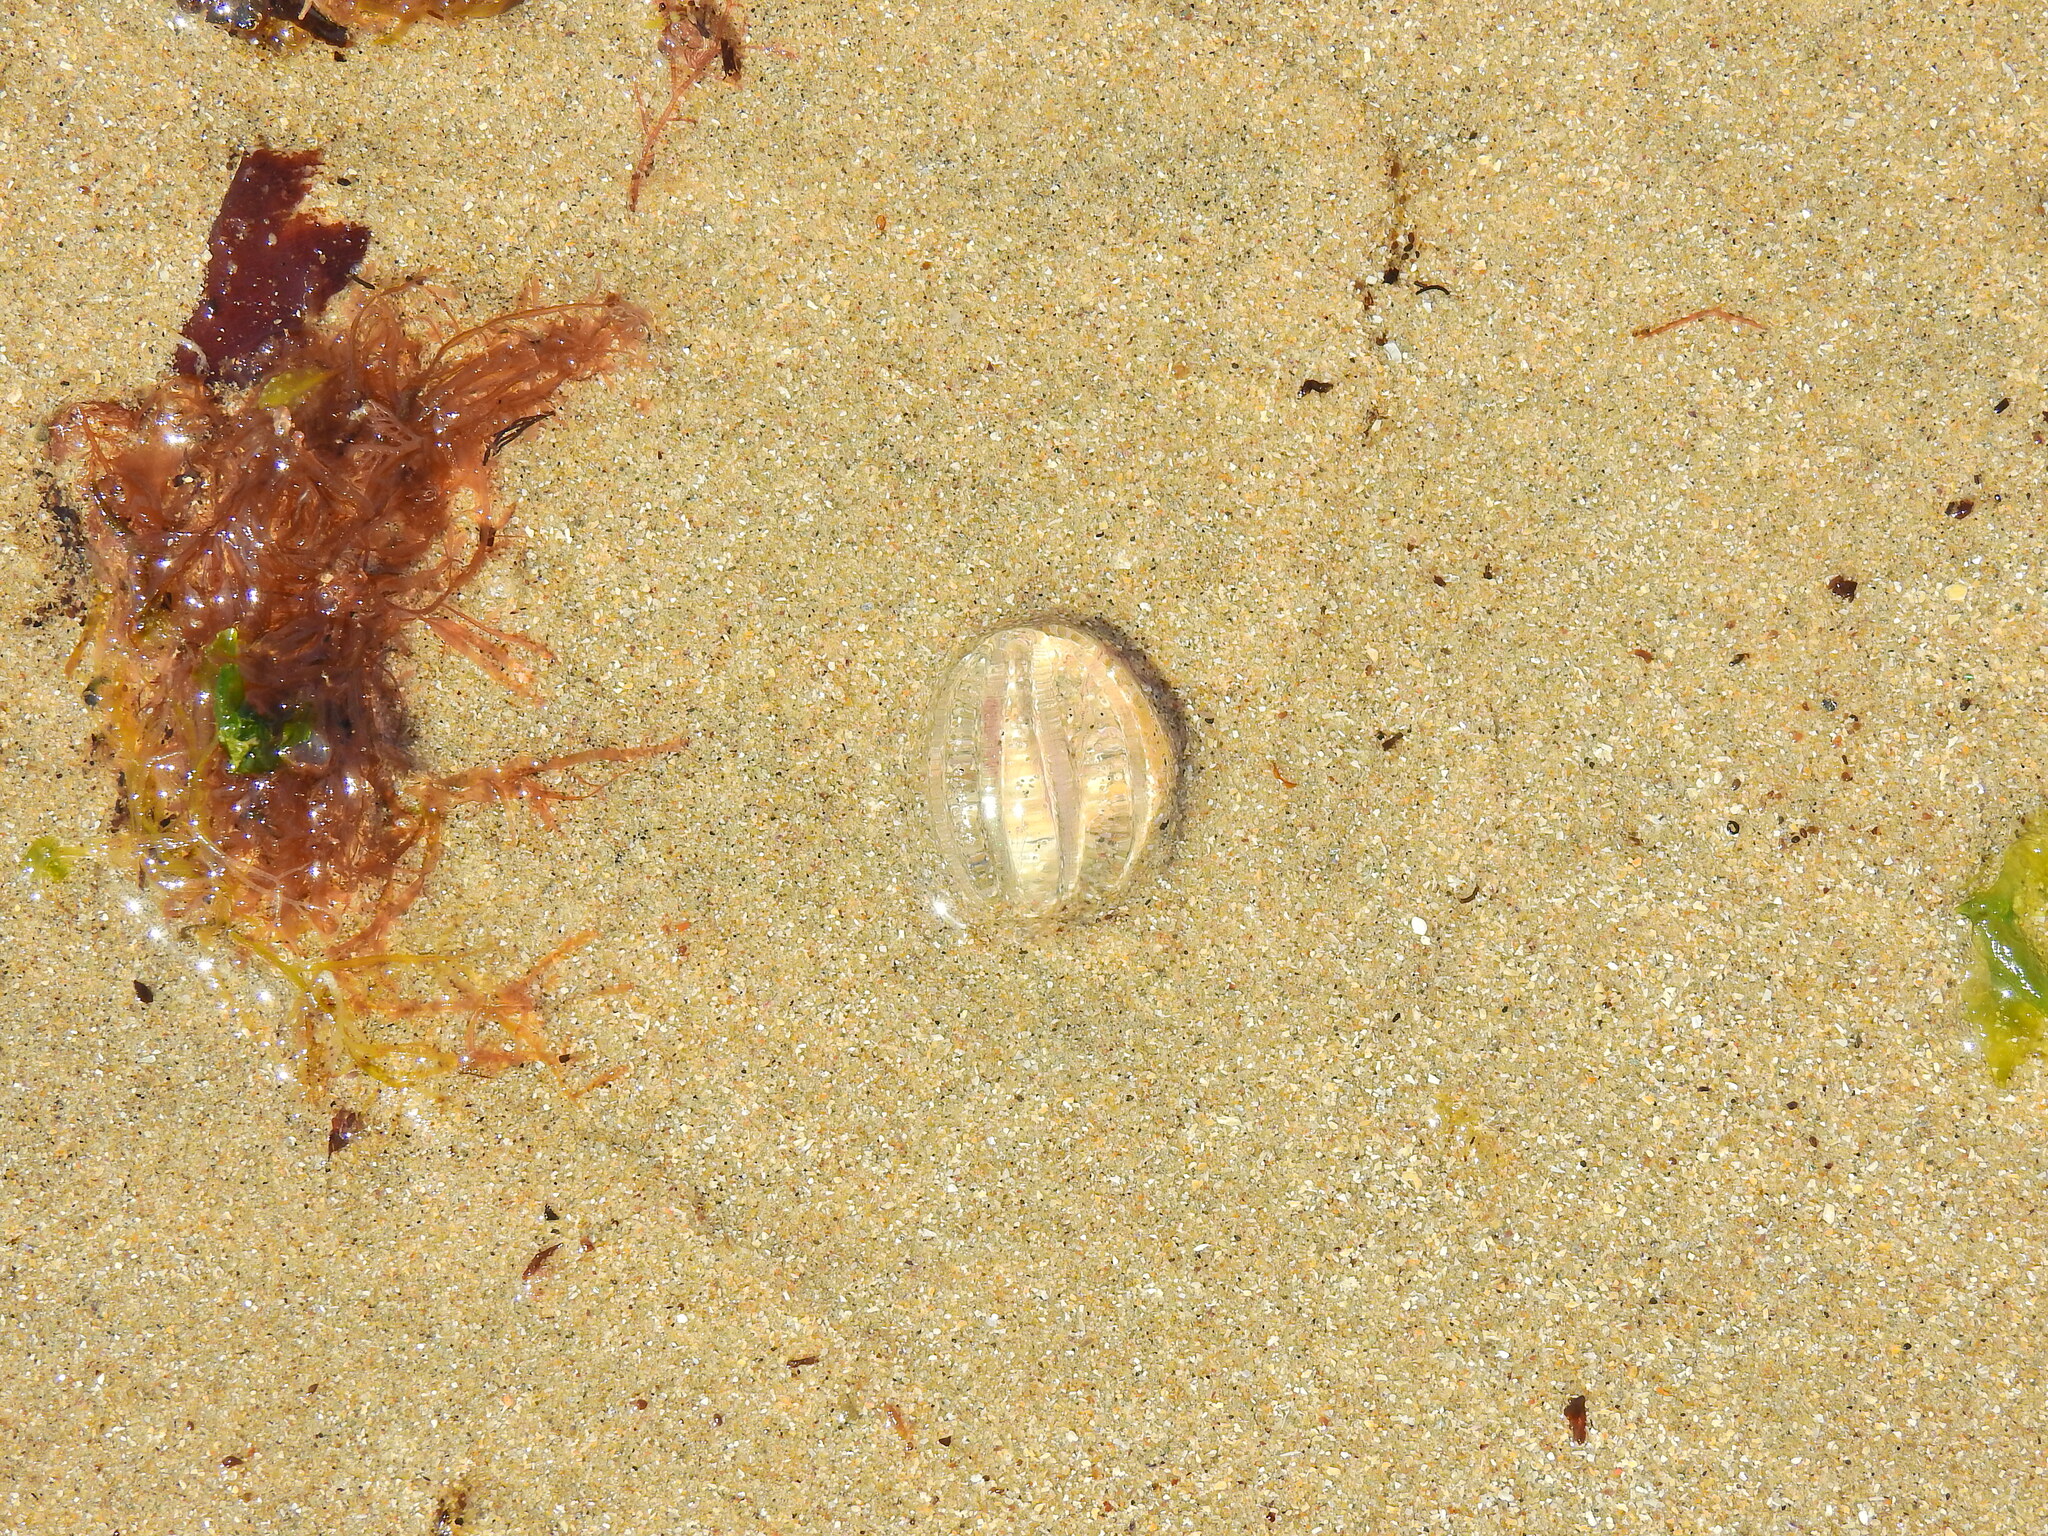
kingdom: Animalia
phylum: Ctenophora
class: Tentaculata
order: Cydippida
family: Pleurobrachiidae
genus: Pleurobrachia
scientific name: Pleurobrachia pileus
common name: Sea gooseberry
